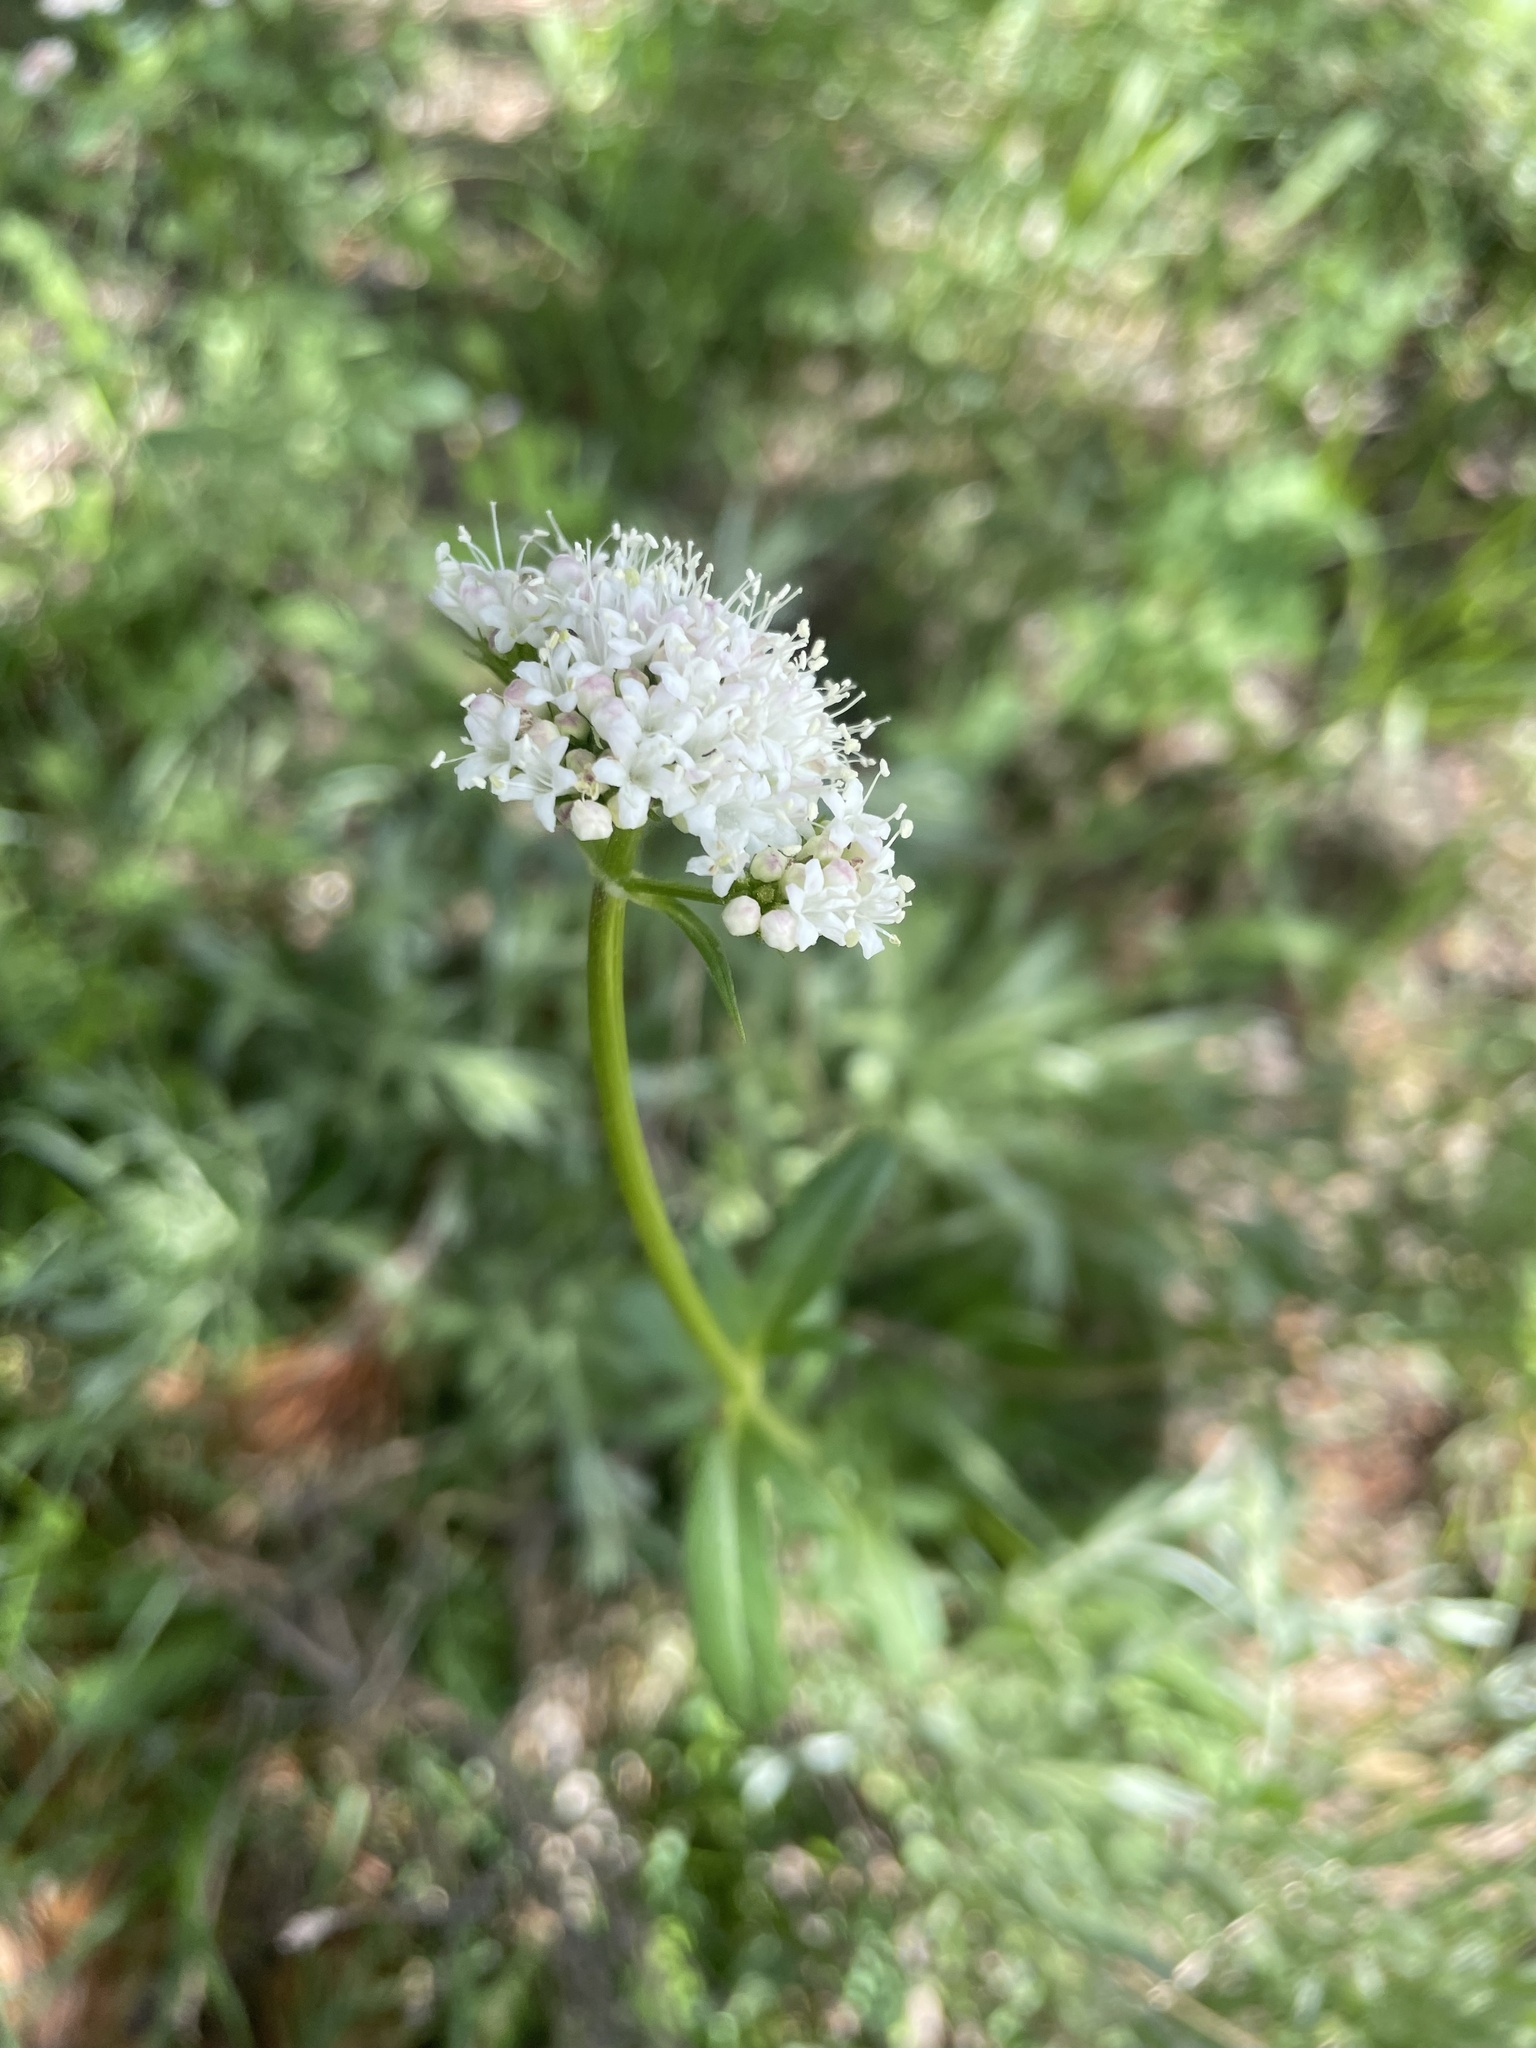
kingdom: Plantae
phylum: Tracheophyta
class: Magnoliopsida
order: Dipsacales
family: Caprifoliaceae
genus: Valeriana
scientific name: Valeriana californica
